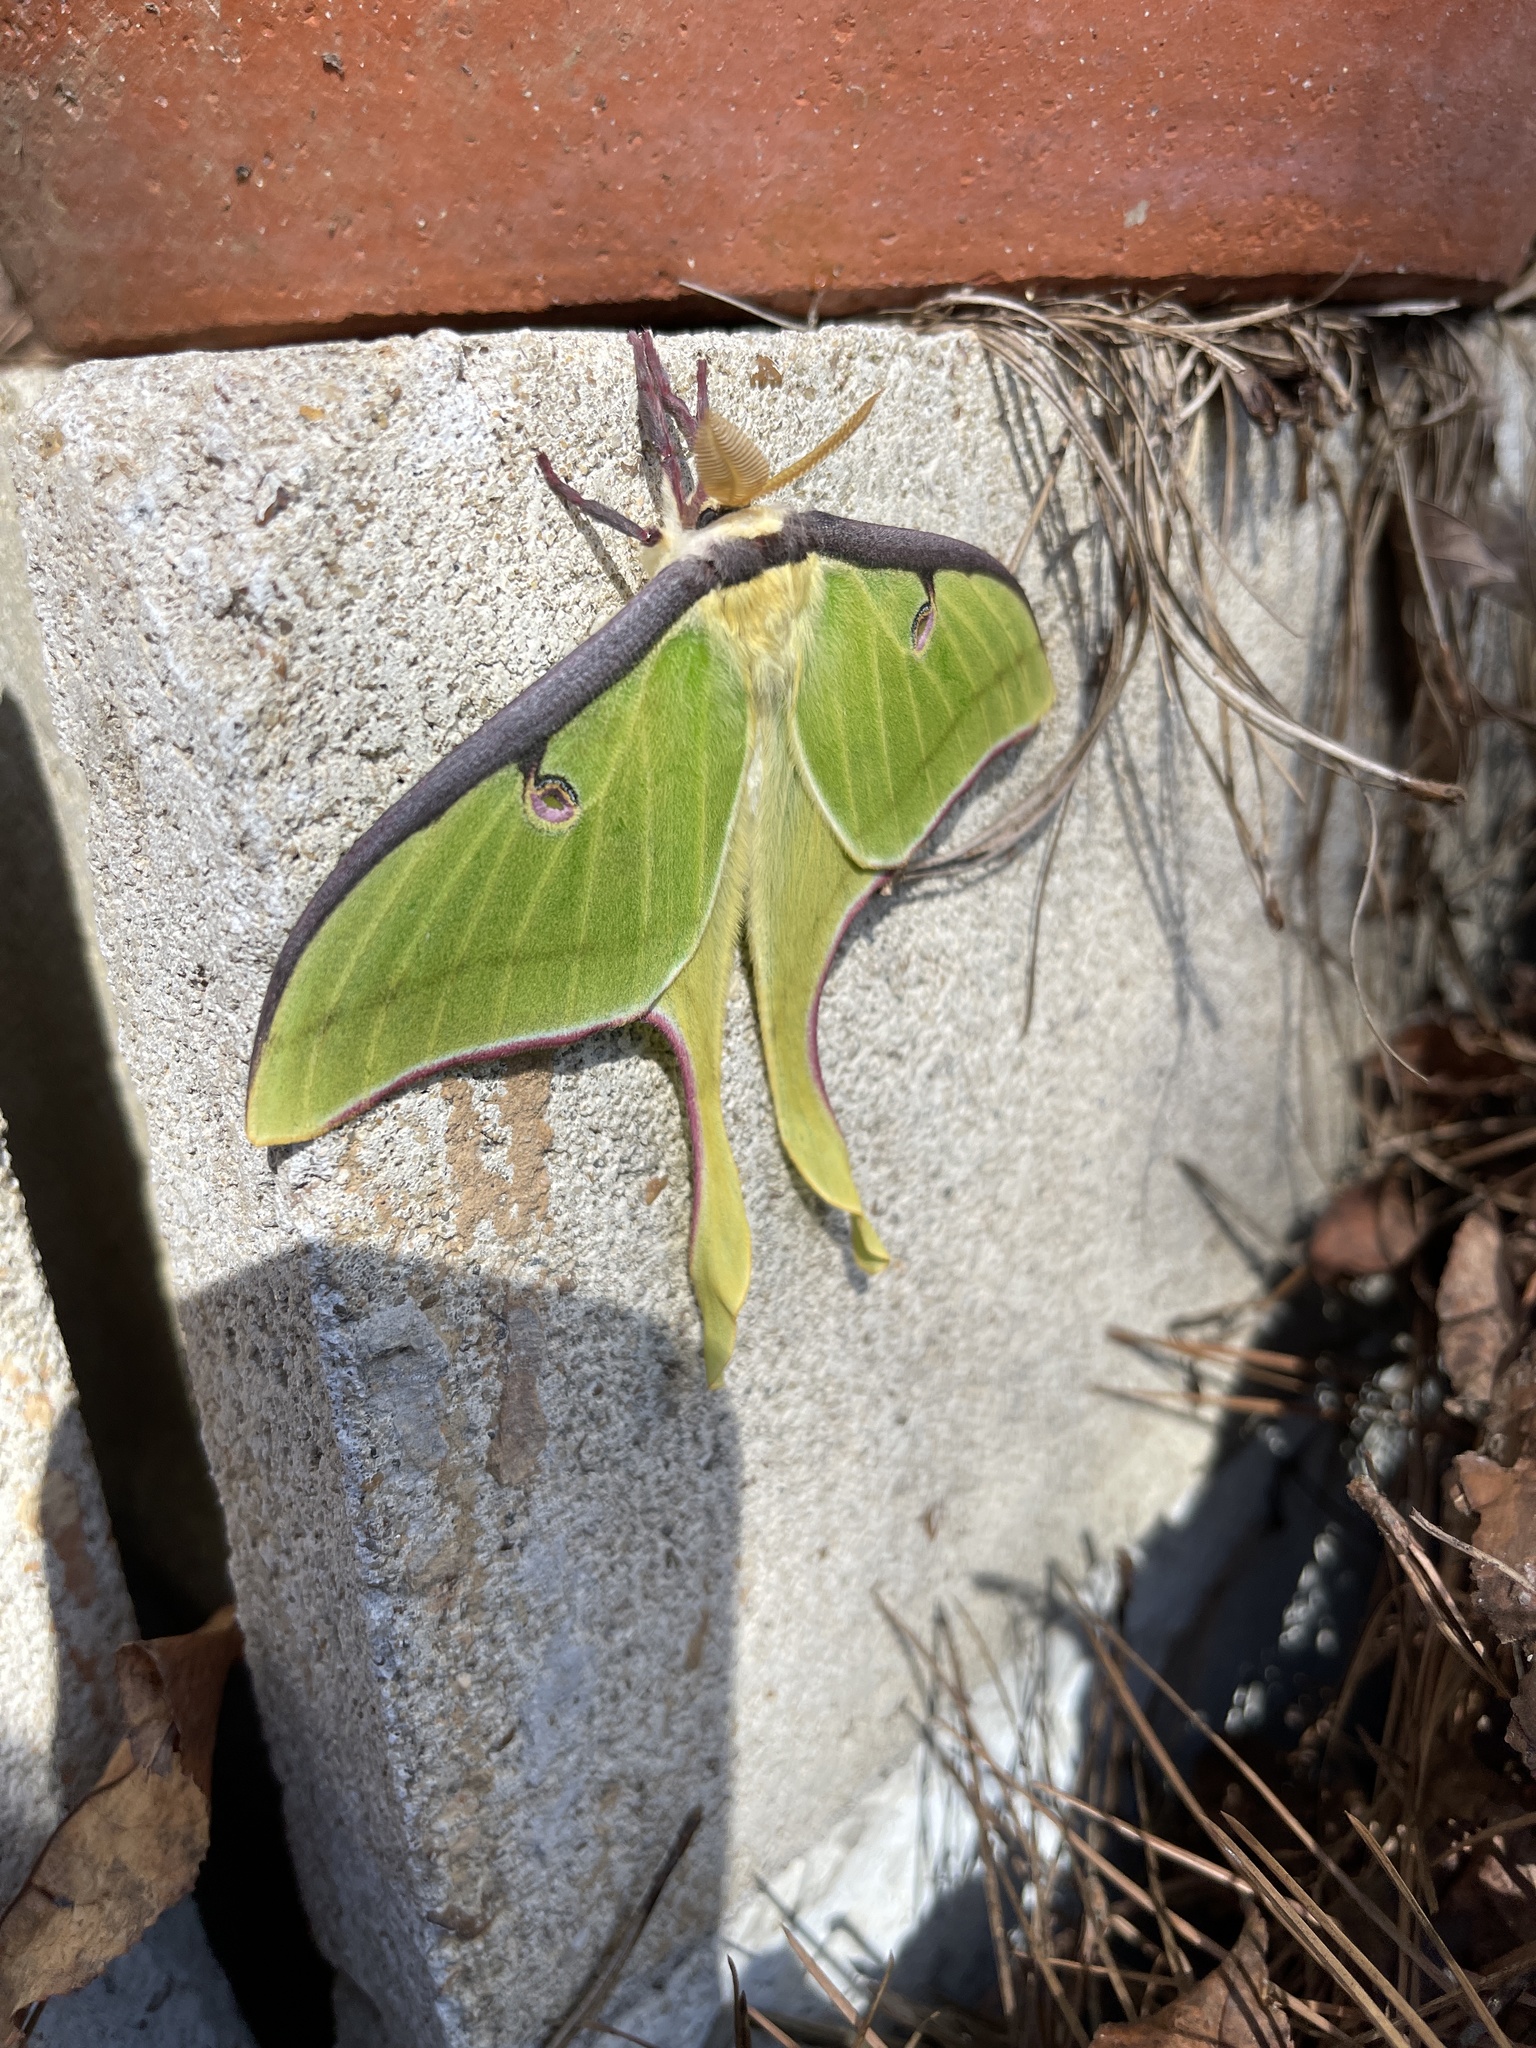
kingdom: Animalia
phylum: Arthropoda
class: Insecta
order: Lepidoptera
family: Saturniidae
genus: Actias
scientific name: Actias luna
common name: Luna moth
